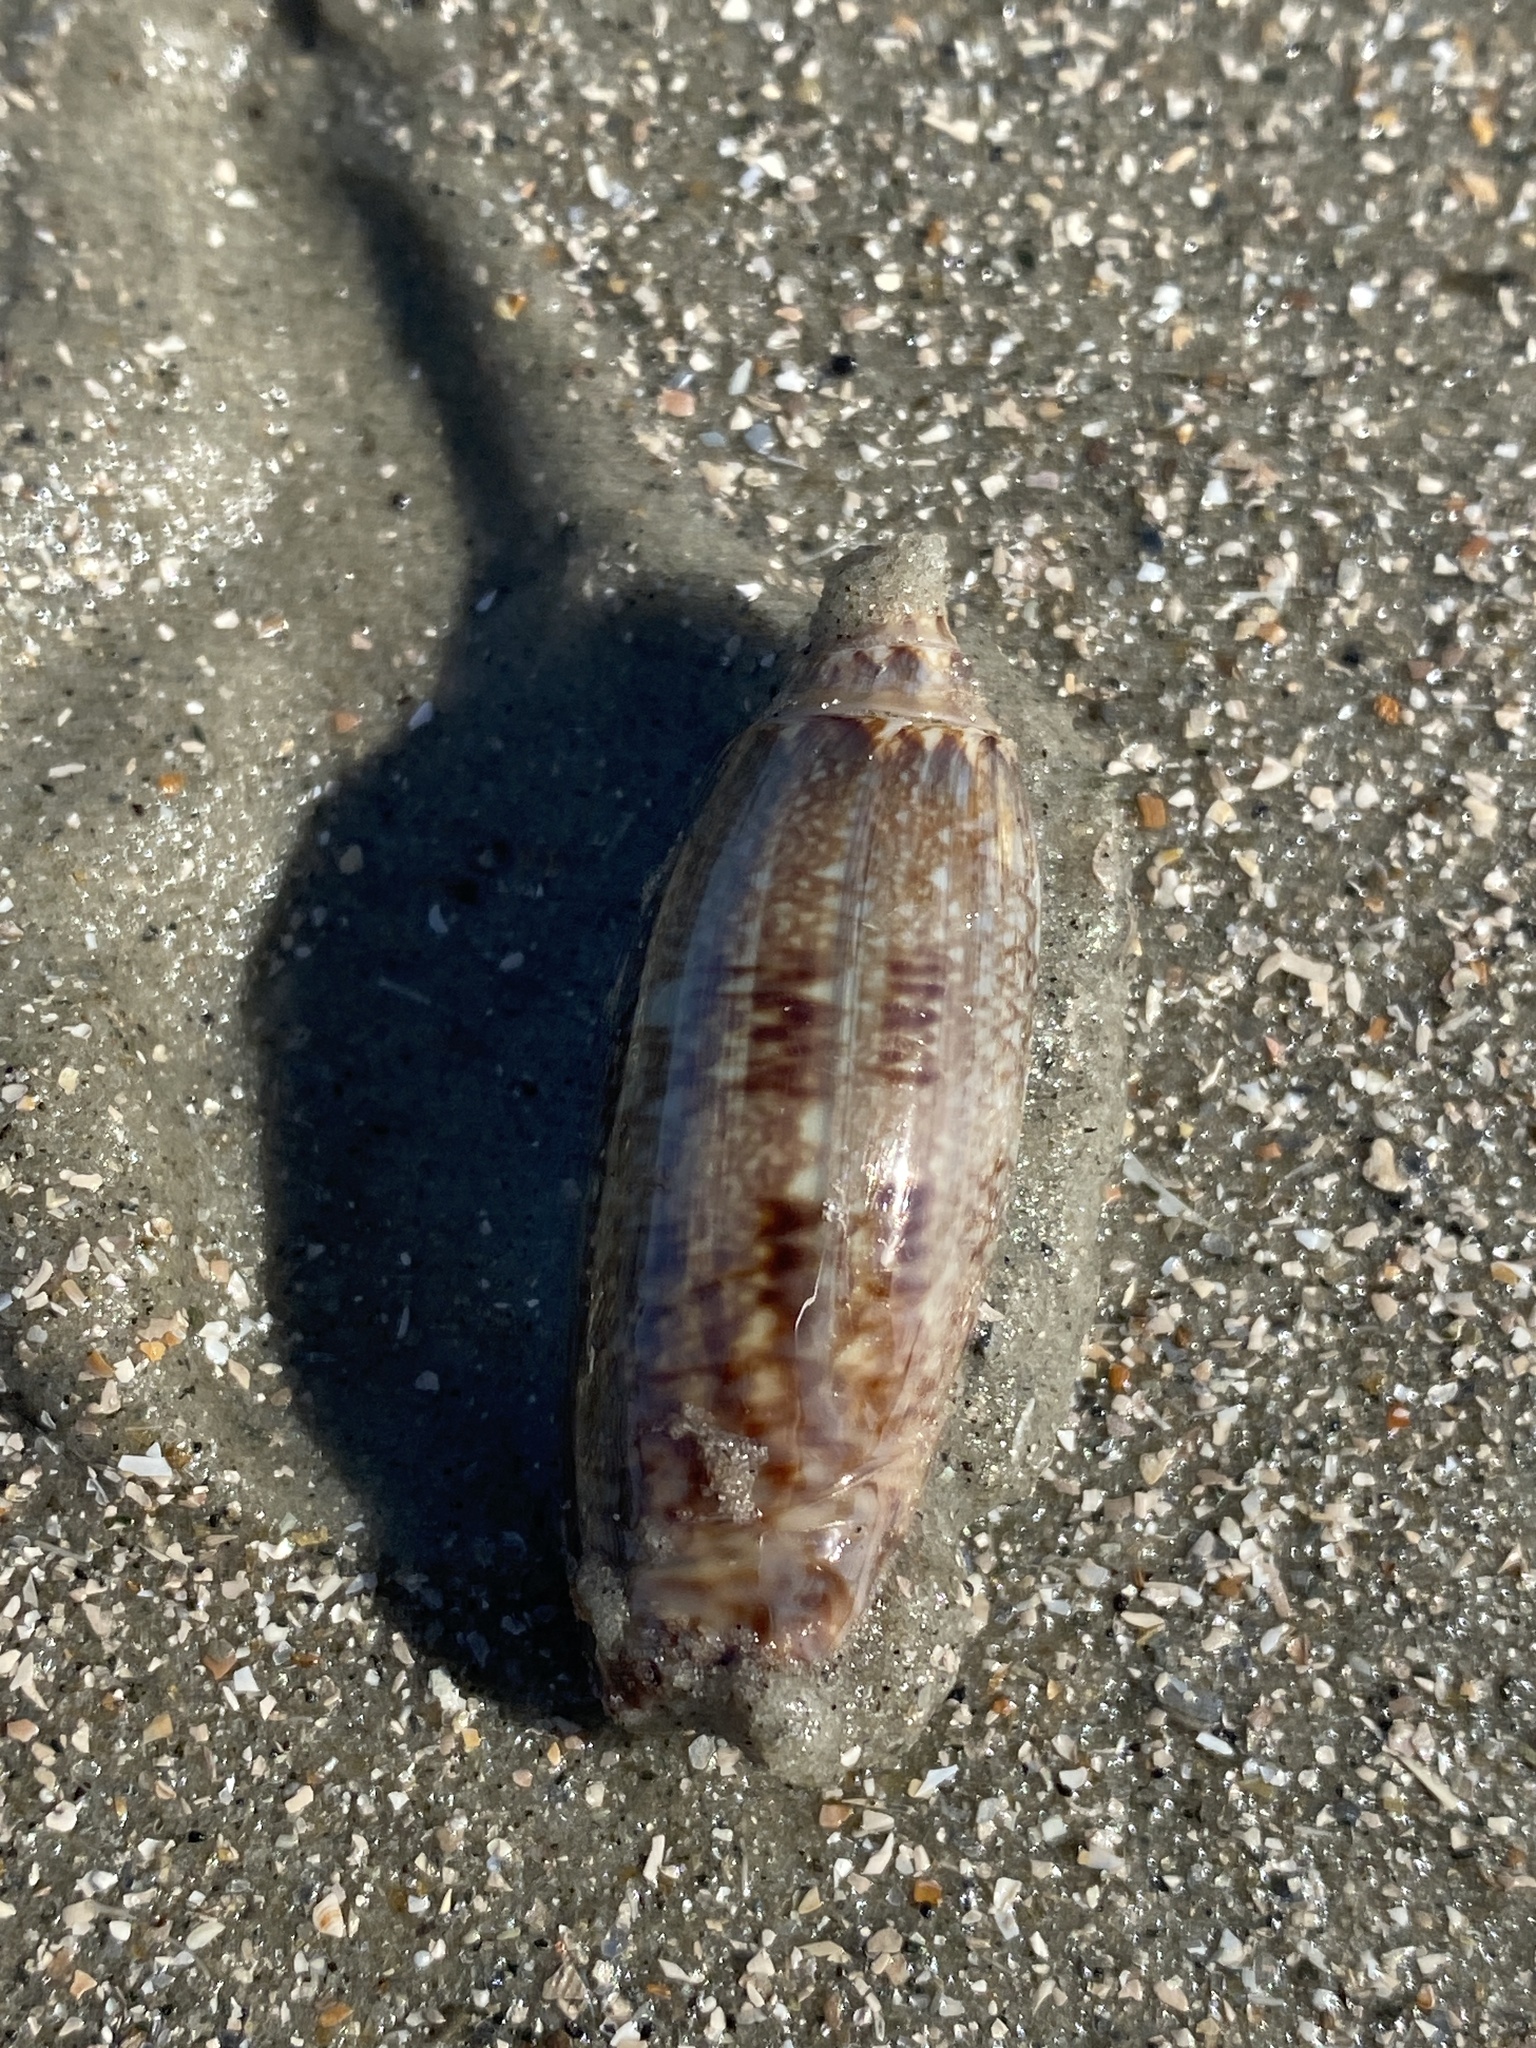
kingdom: Animalia
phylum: Mollusca
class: Gastropoda
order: Neogastropoda
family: Olividae
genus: Oliva
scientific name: Oliva sayana
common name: Lettered olive
